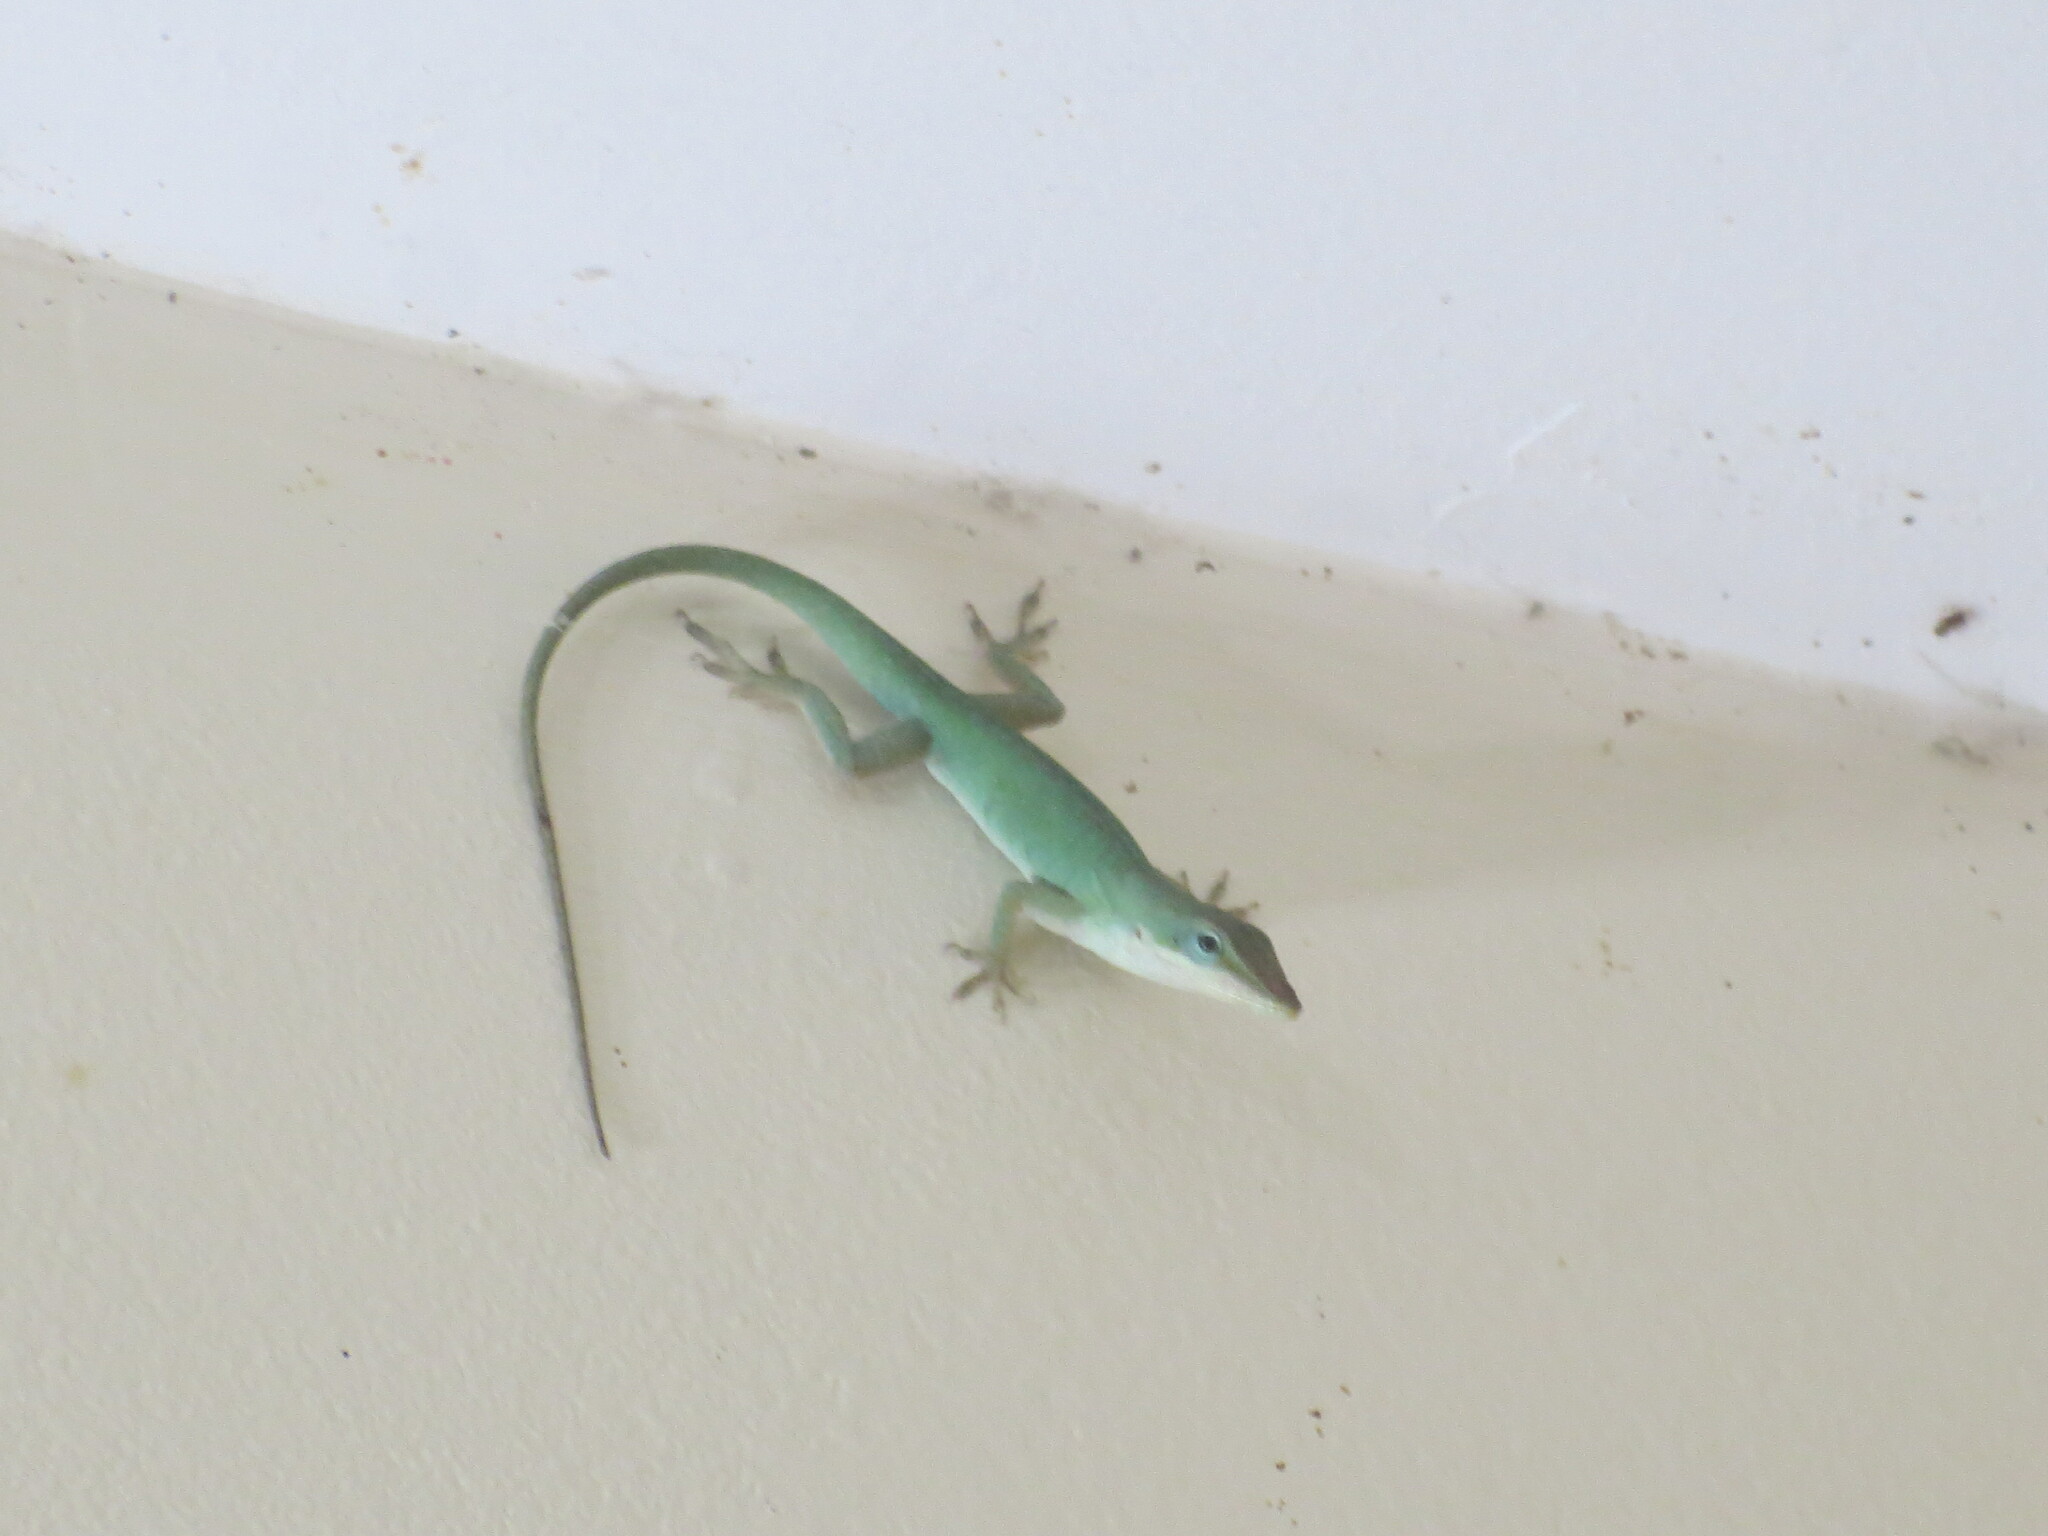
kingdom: Animalia
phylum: Chordata
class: Squamata
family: Dactyloidae
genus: Anolis
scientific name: Anolis carolinensis
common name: Green anole
